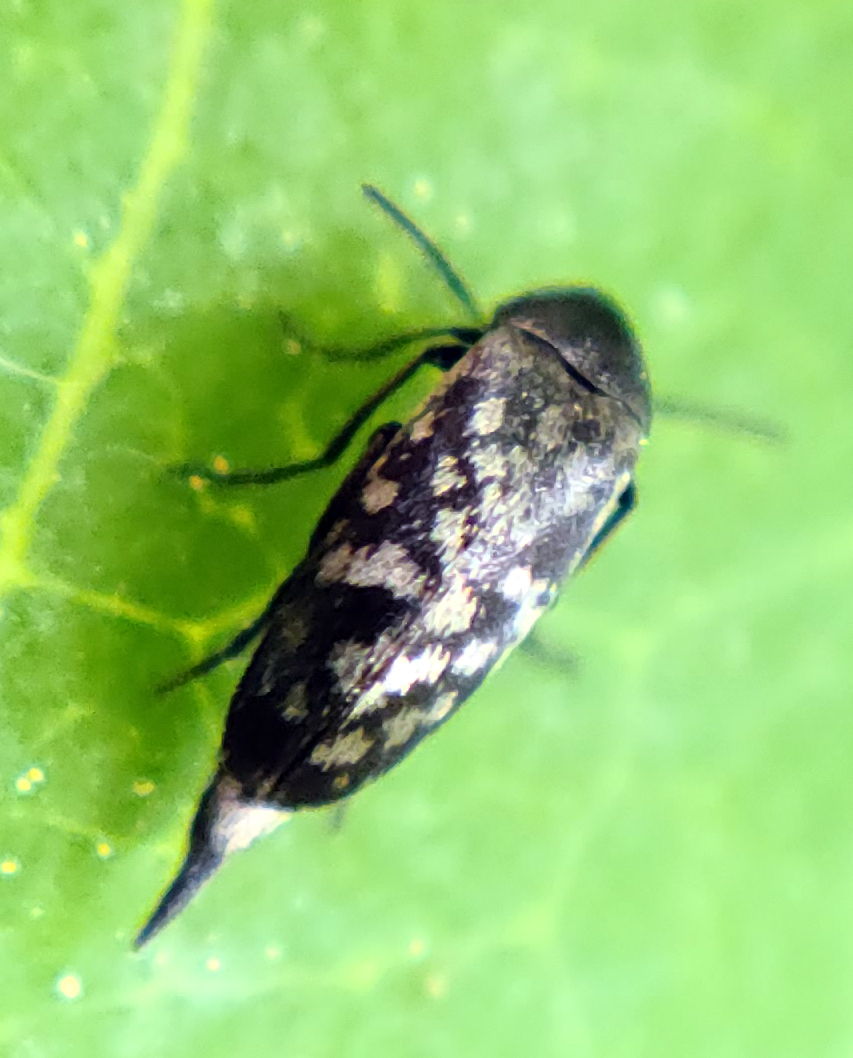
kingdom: Animalia
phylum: Arthropoda
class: Insecta
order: Coleoptera
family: Mordellidae
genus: Mordellina
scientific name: Mordellina pustulata
